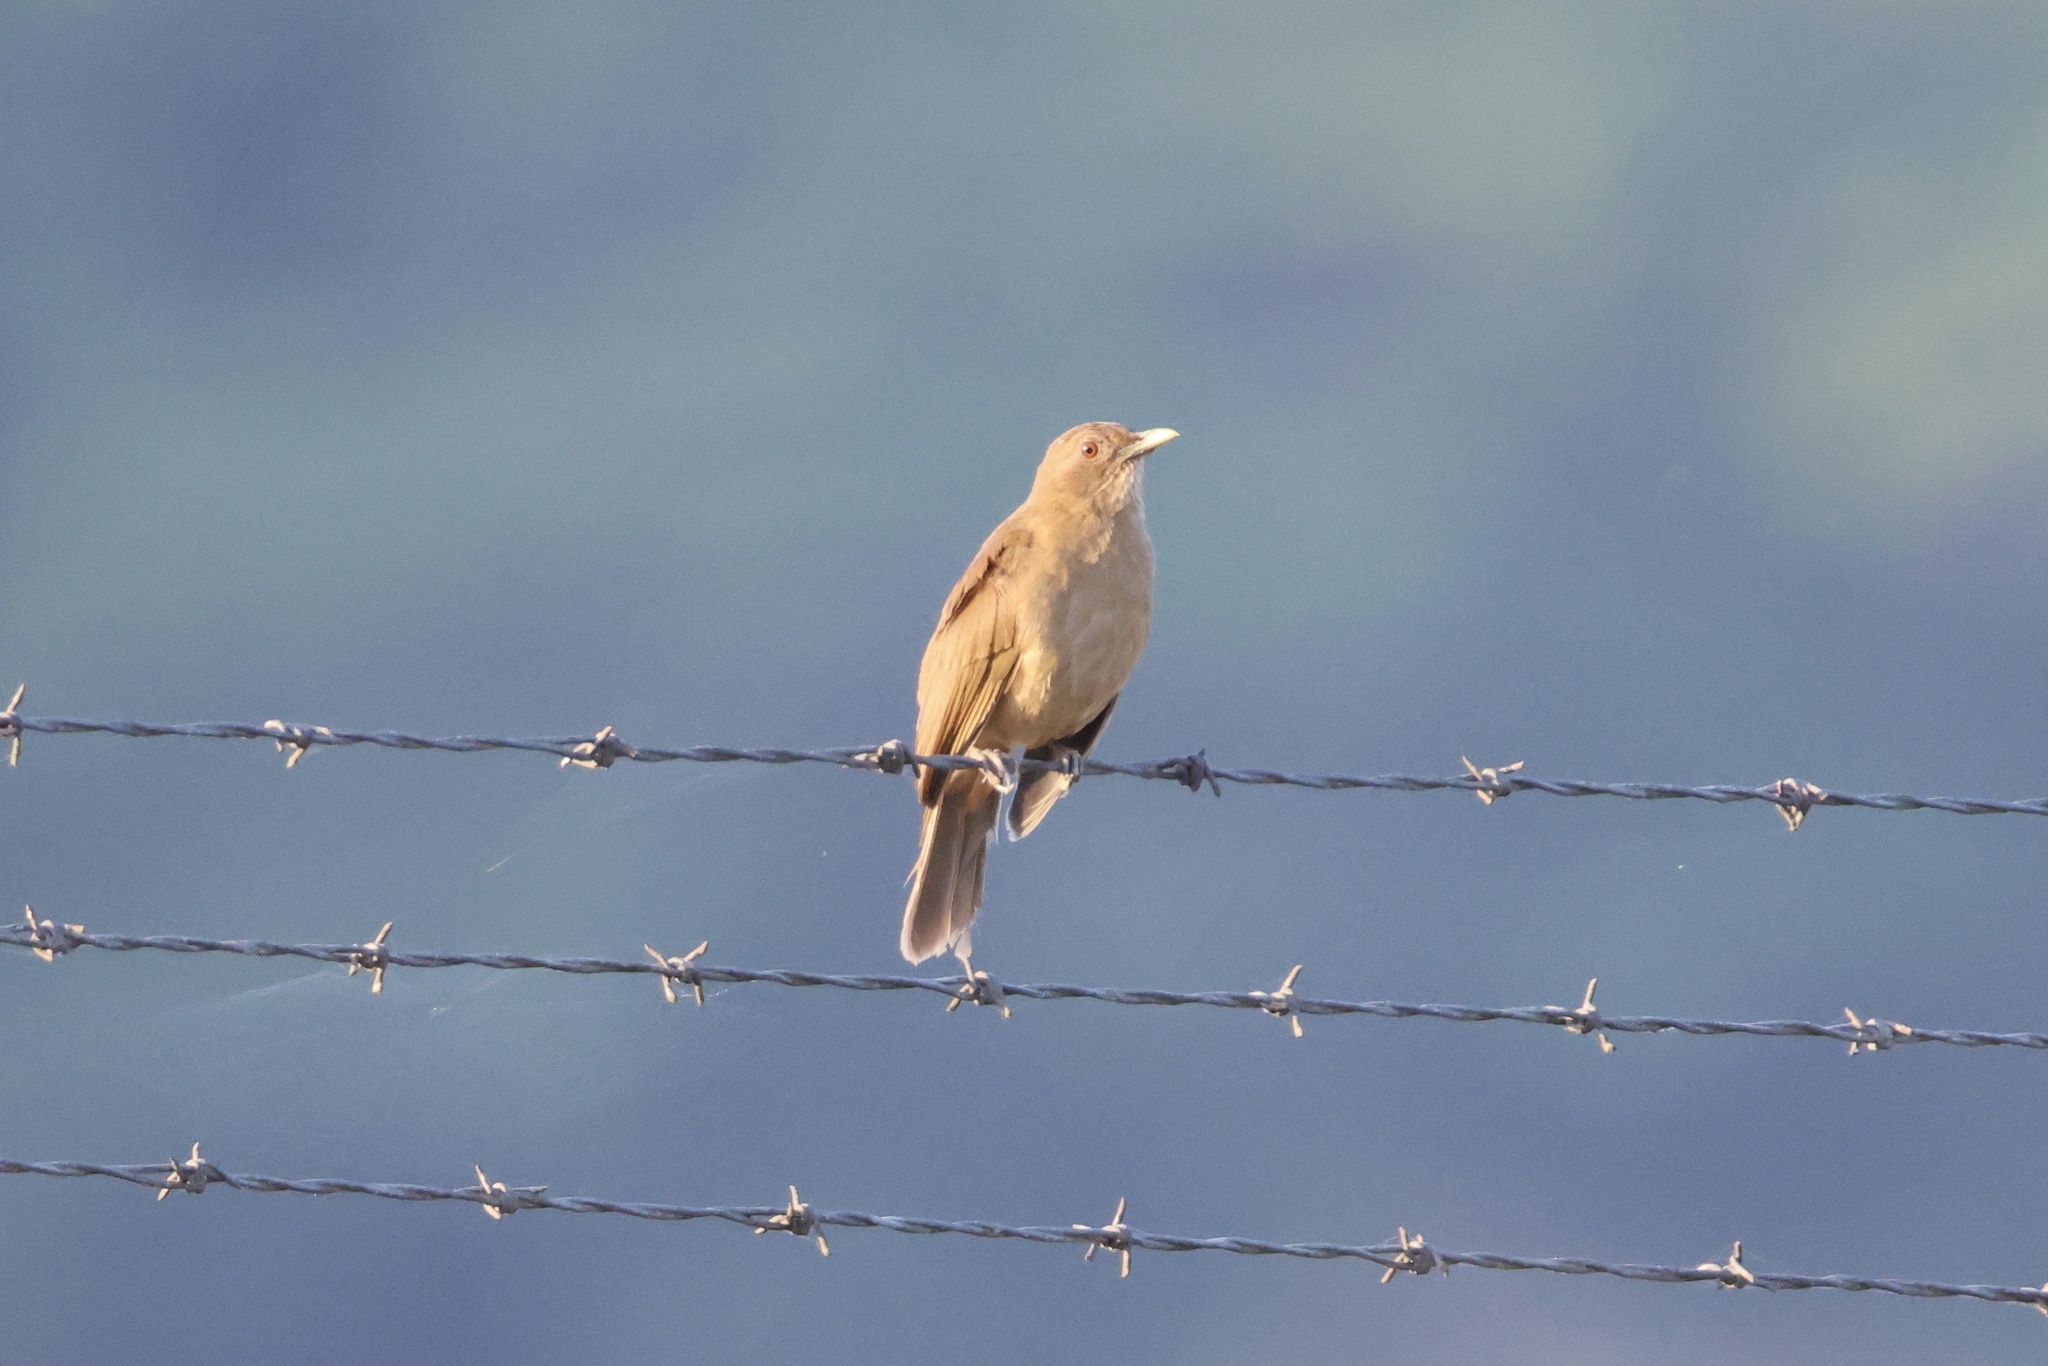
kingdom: Animalia
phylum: Chordata
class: Aves
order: Passeriformes
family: Turdidae
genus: Turdus
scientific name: Turdus grayi
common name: Clay-colored thrush
